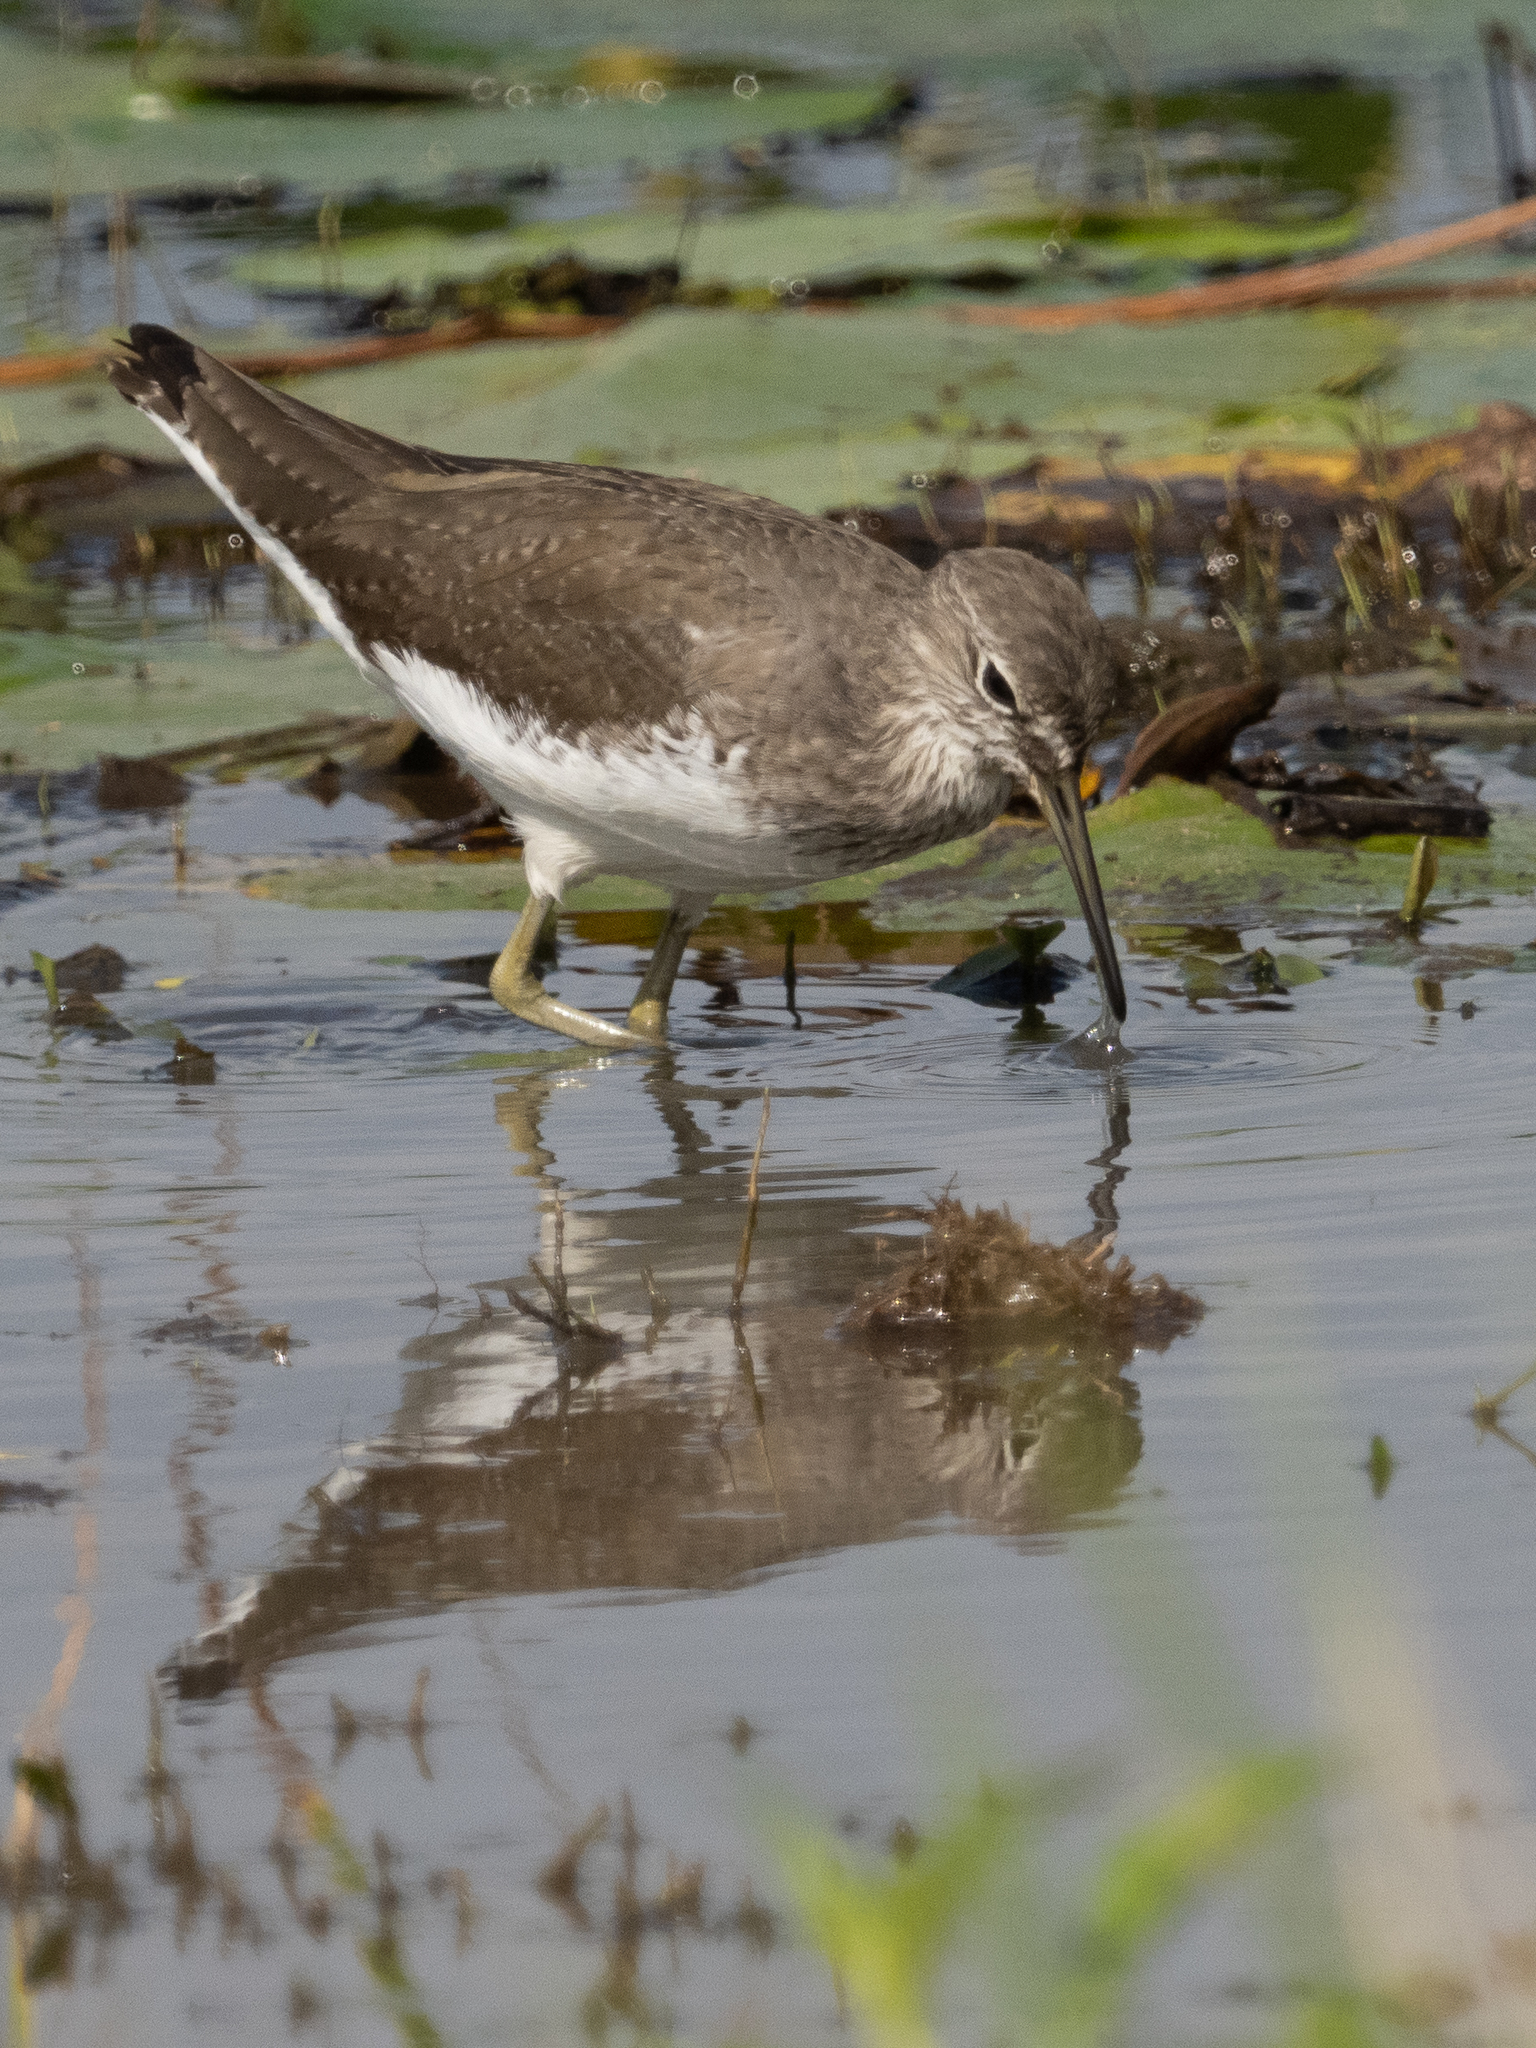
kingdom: Animalia
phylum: Chordata
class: Aves
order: Charadriiformes
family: Scolopacidae
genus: Tringa
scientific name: Tringa ochropus
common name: Green sandpiper
